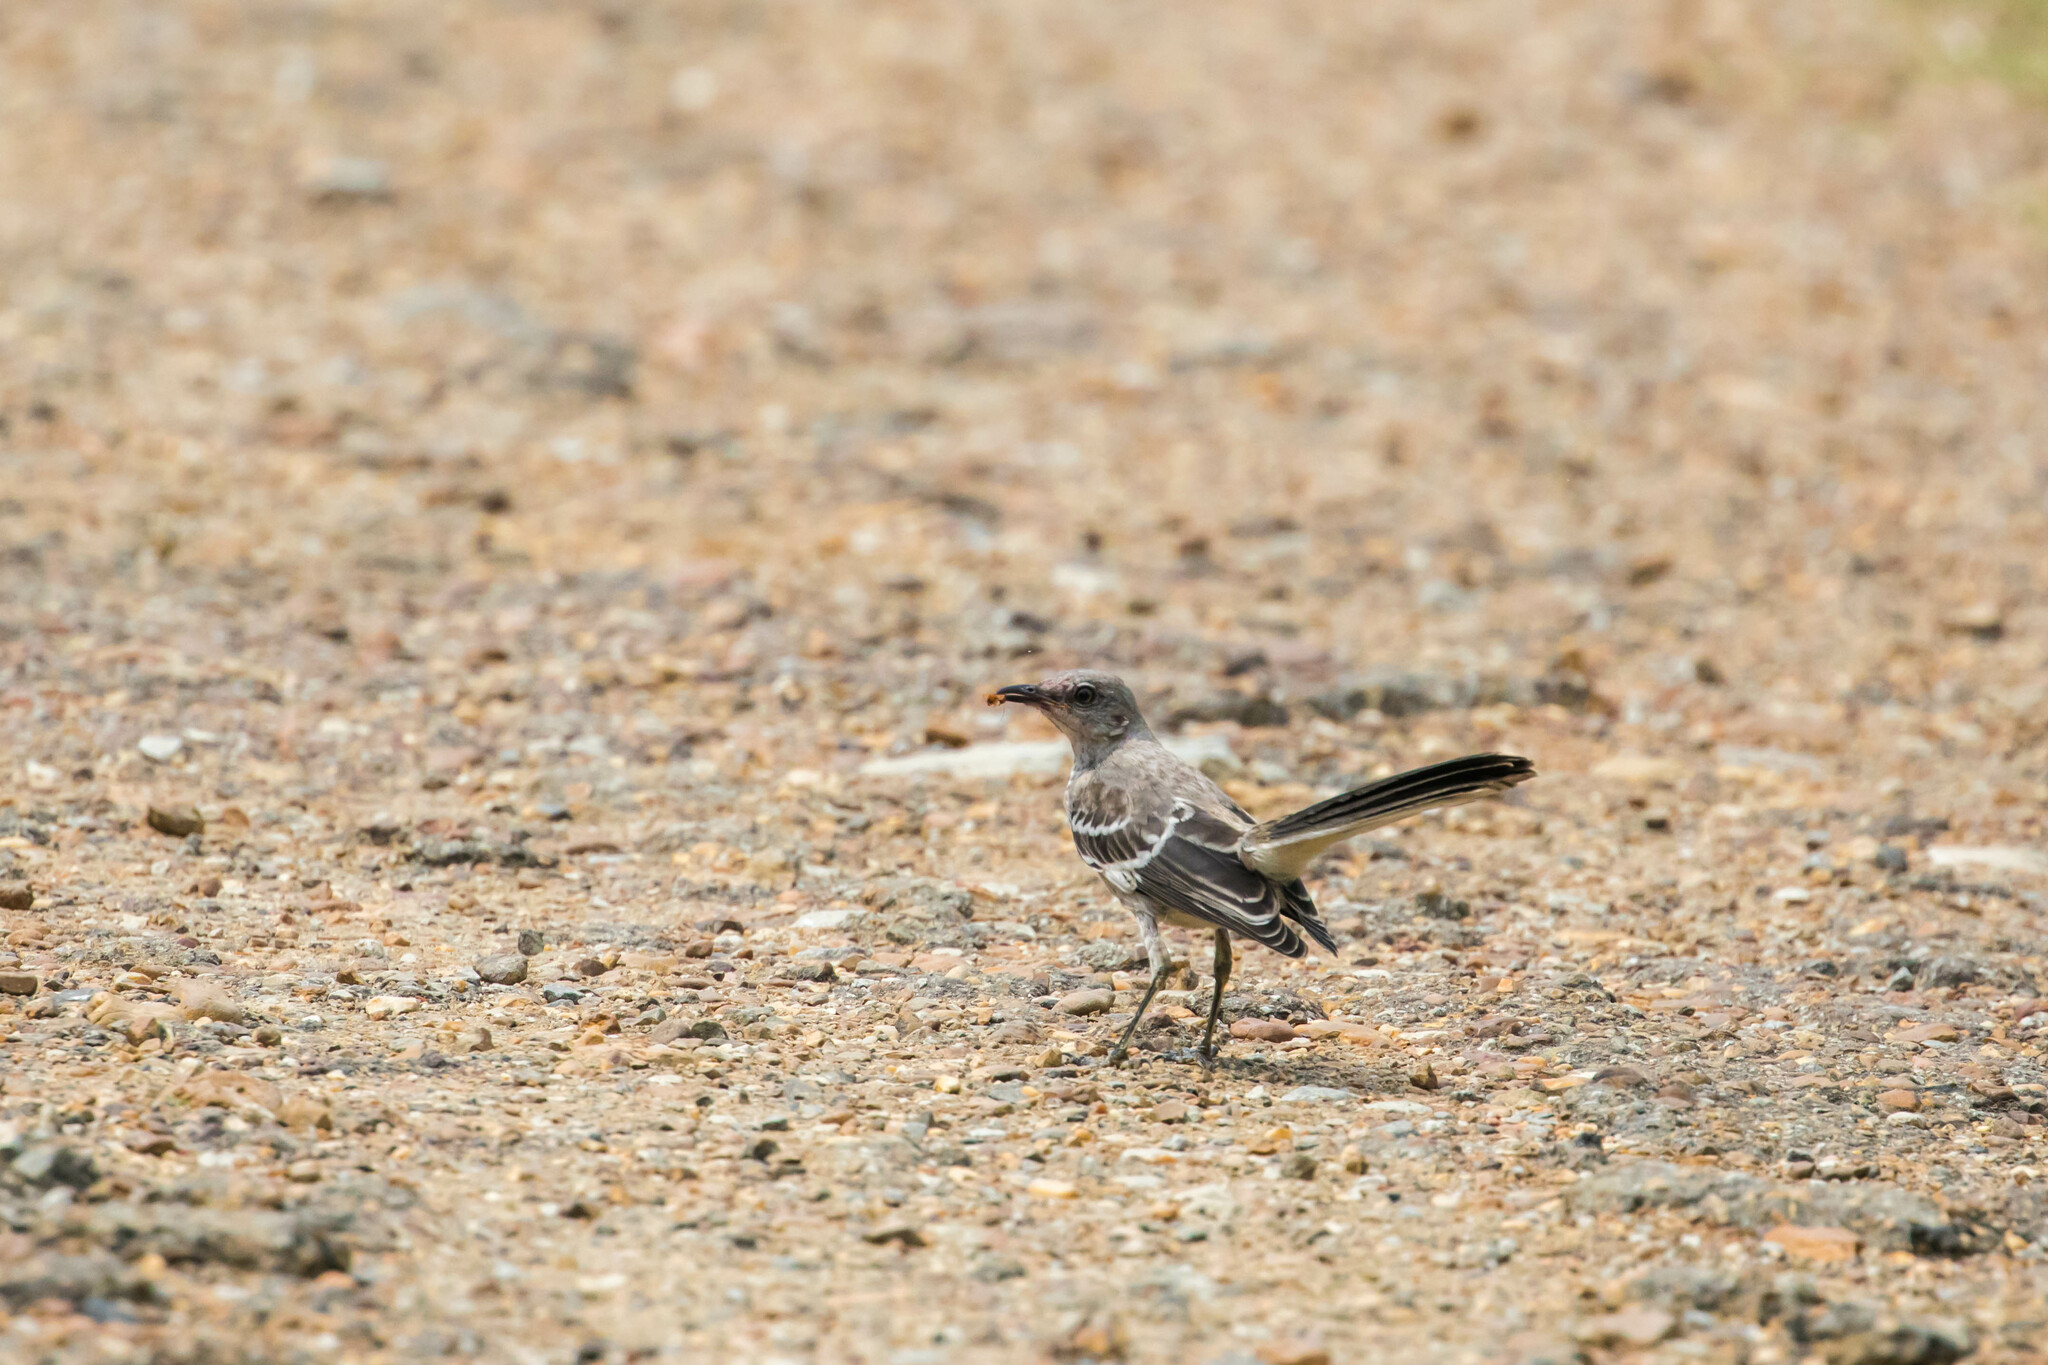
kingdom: Animalia
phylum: Chordata
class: Aves
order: Passeriformes
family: Mimidae
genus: Mimus
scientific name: Mimus polyglottos
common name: Northern mockingbird
